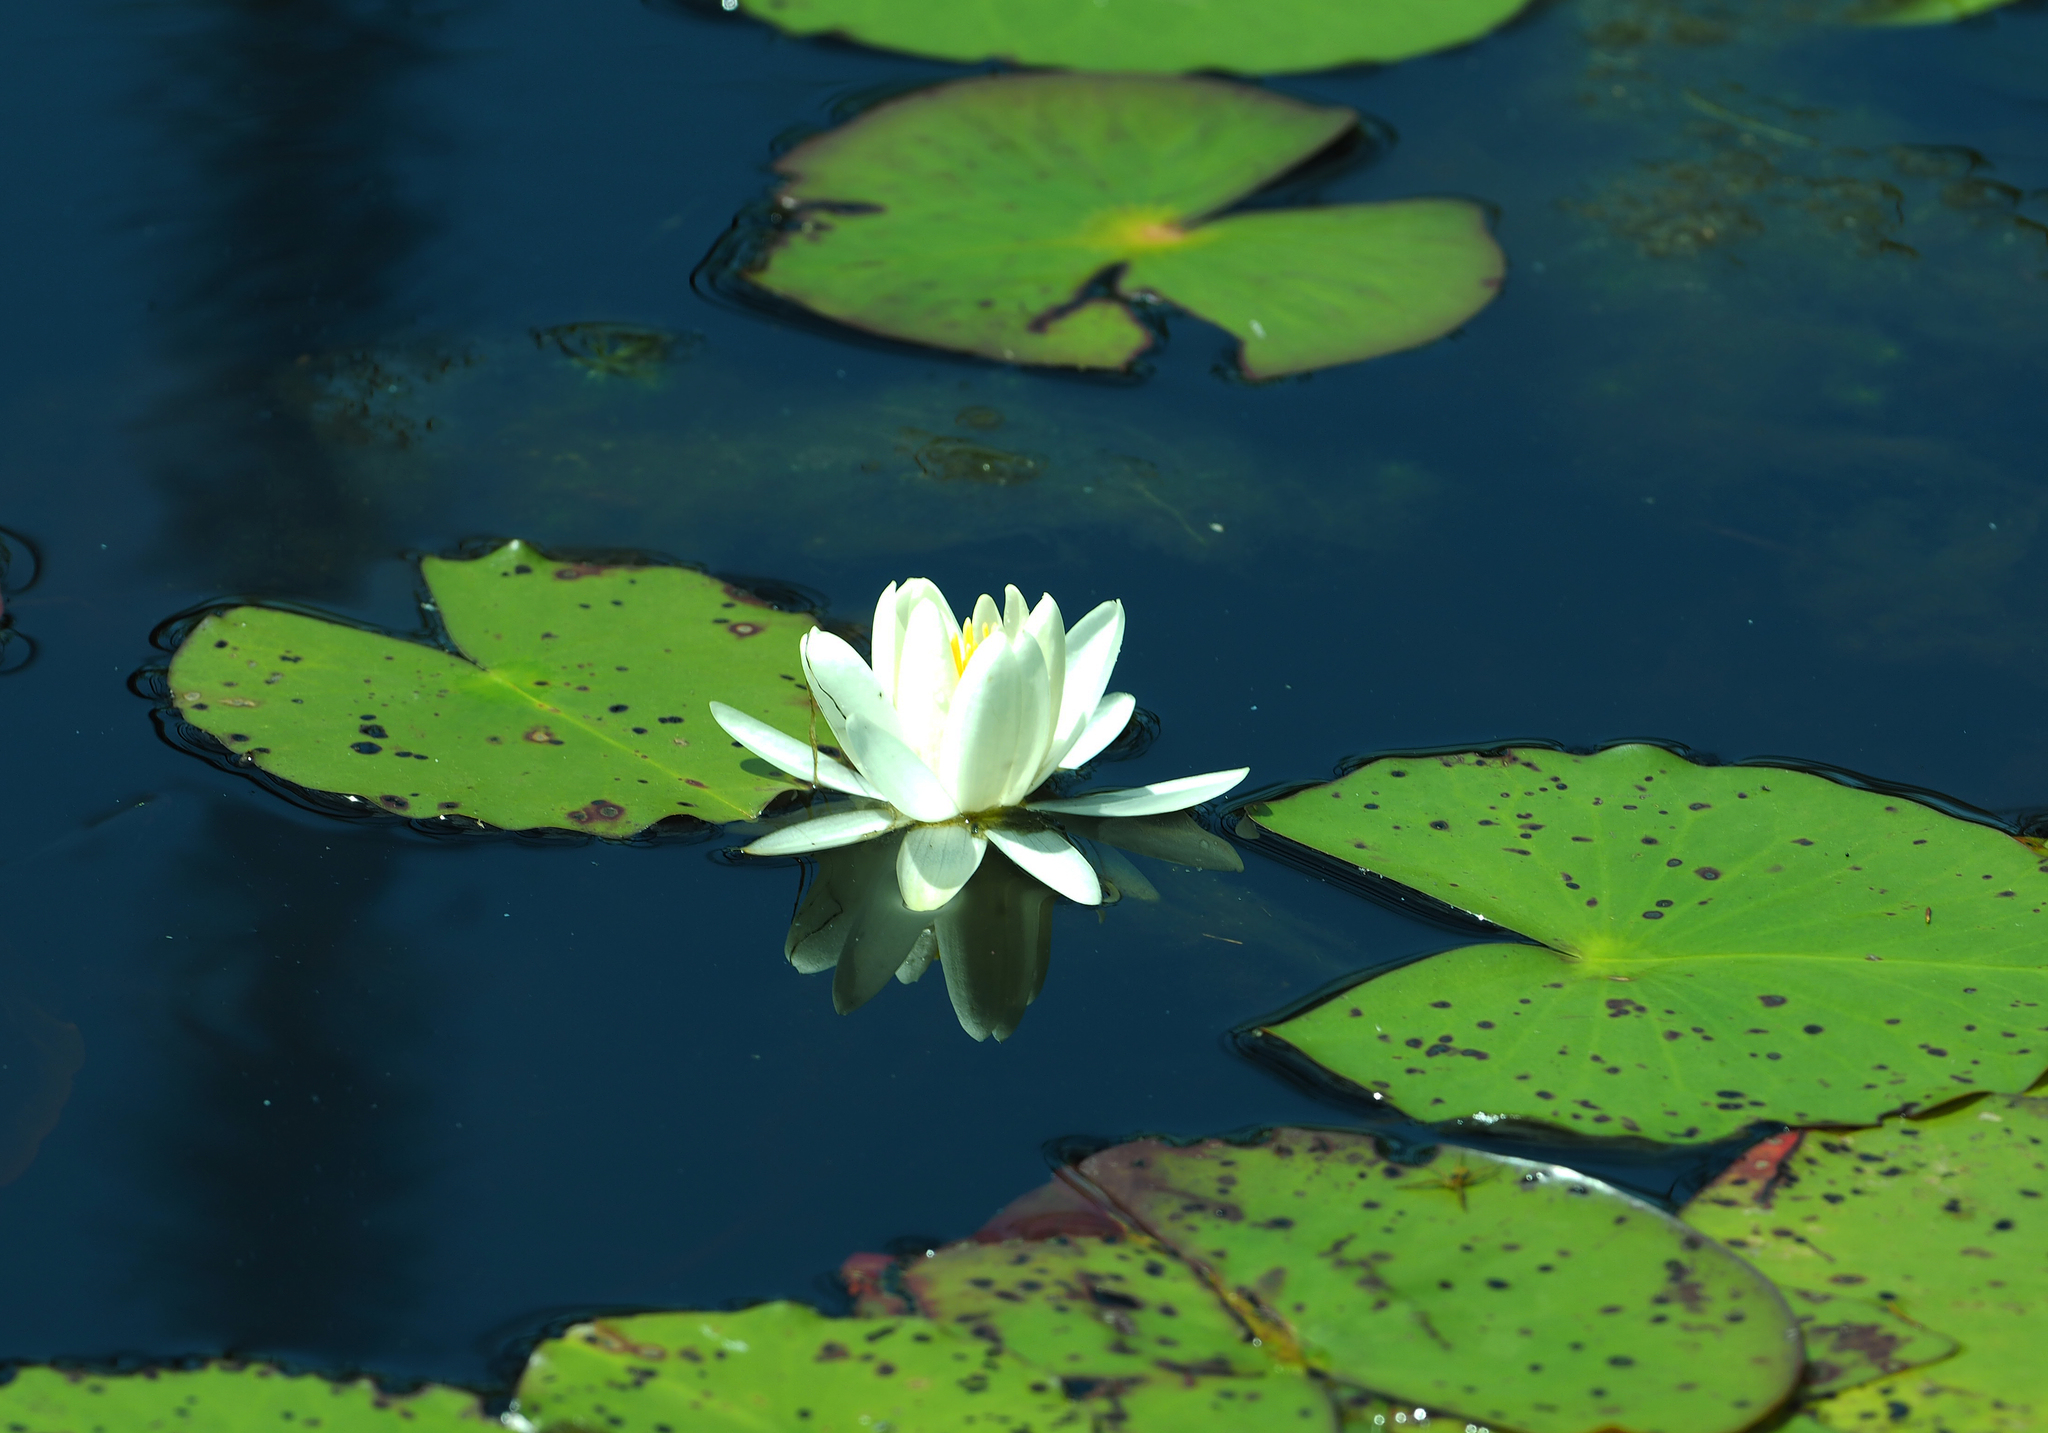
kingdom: Plantae
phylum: Tracheophyta
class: Magnoliopsida
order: Nymphaeales
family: Nymphaeaceae
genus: Nymphaea
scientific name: Nymphaea odorata
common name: Fragrant water-lily
